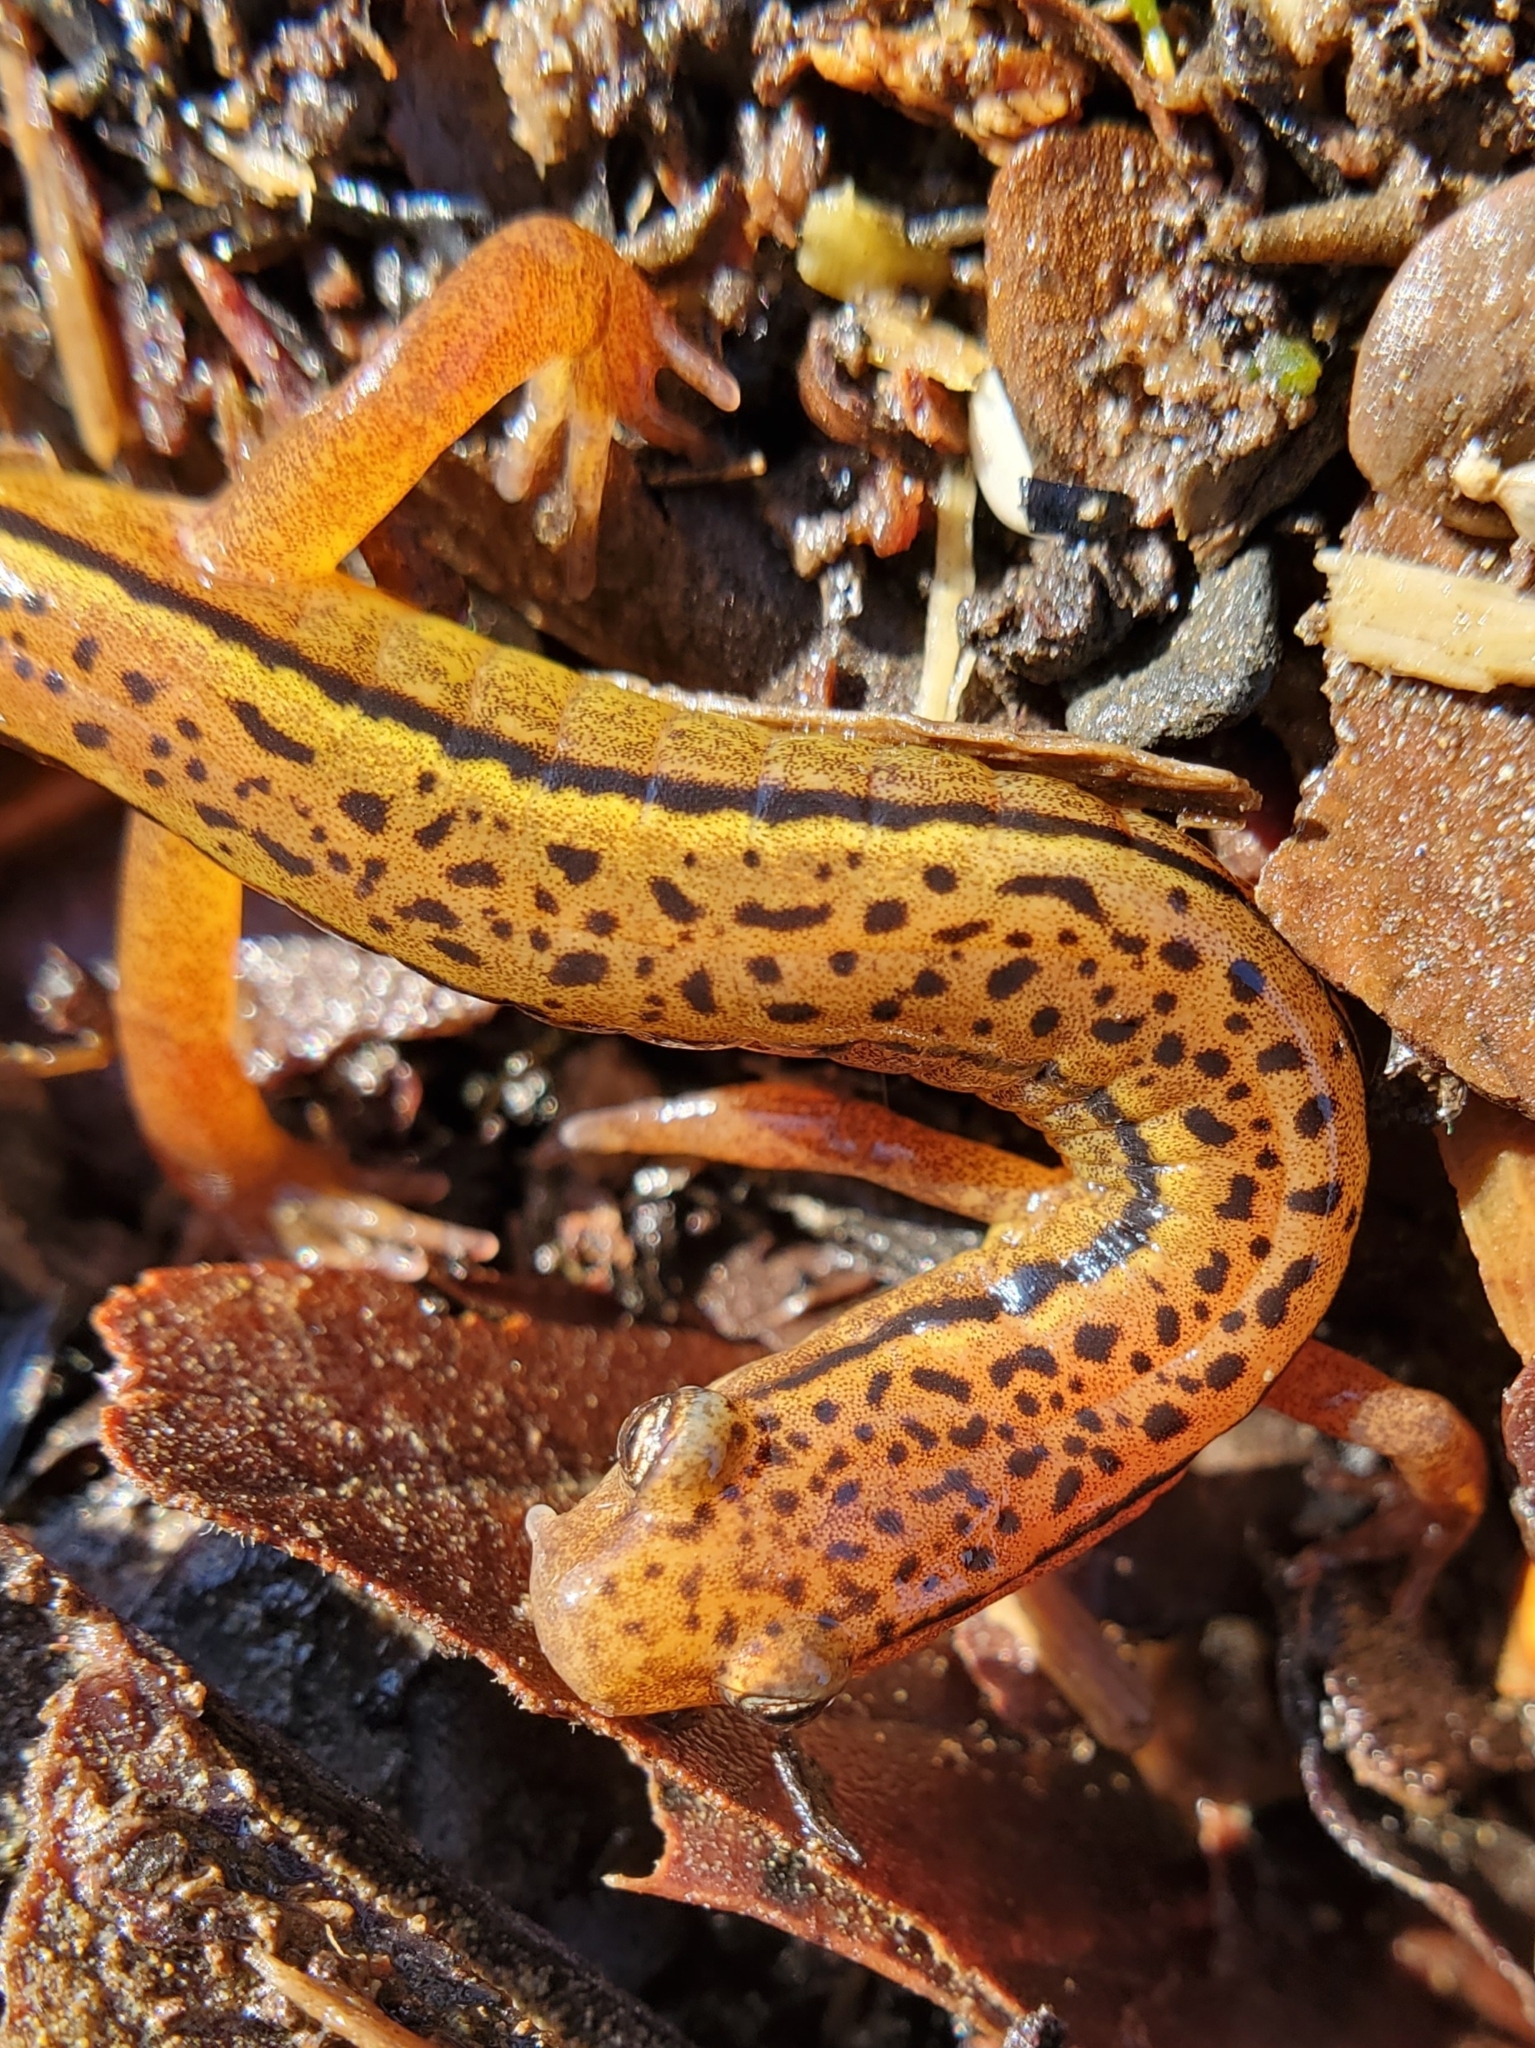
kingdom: Animalia
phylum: Chordata
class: Amphibia
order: Caudata
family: Plethodontidae
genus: Eurycea
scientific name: Eurycea wilderae
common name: Blue ridge two-lined salamander
